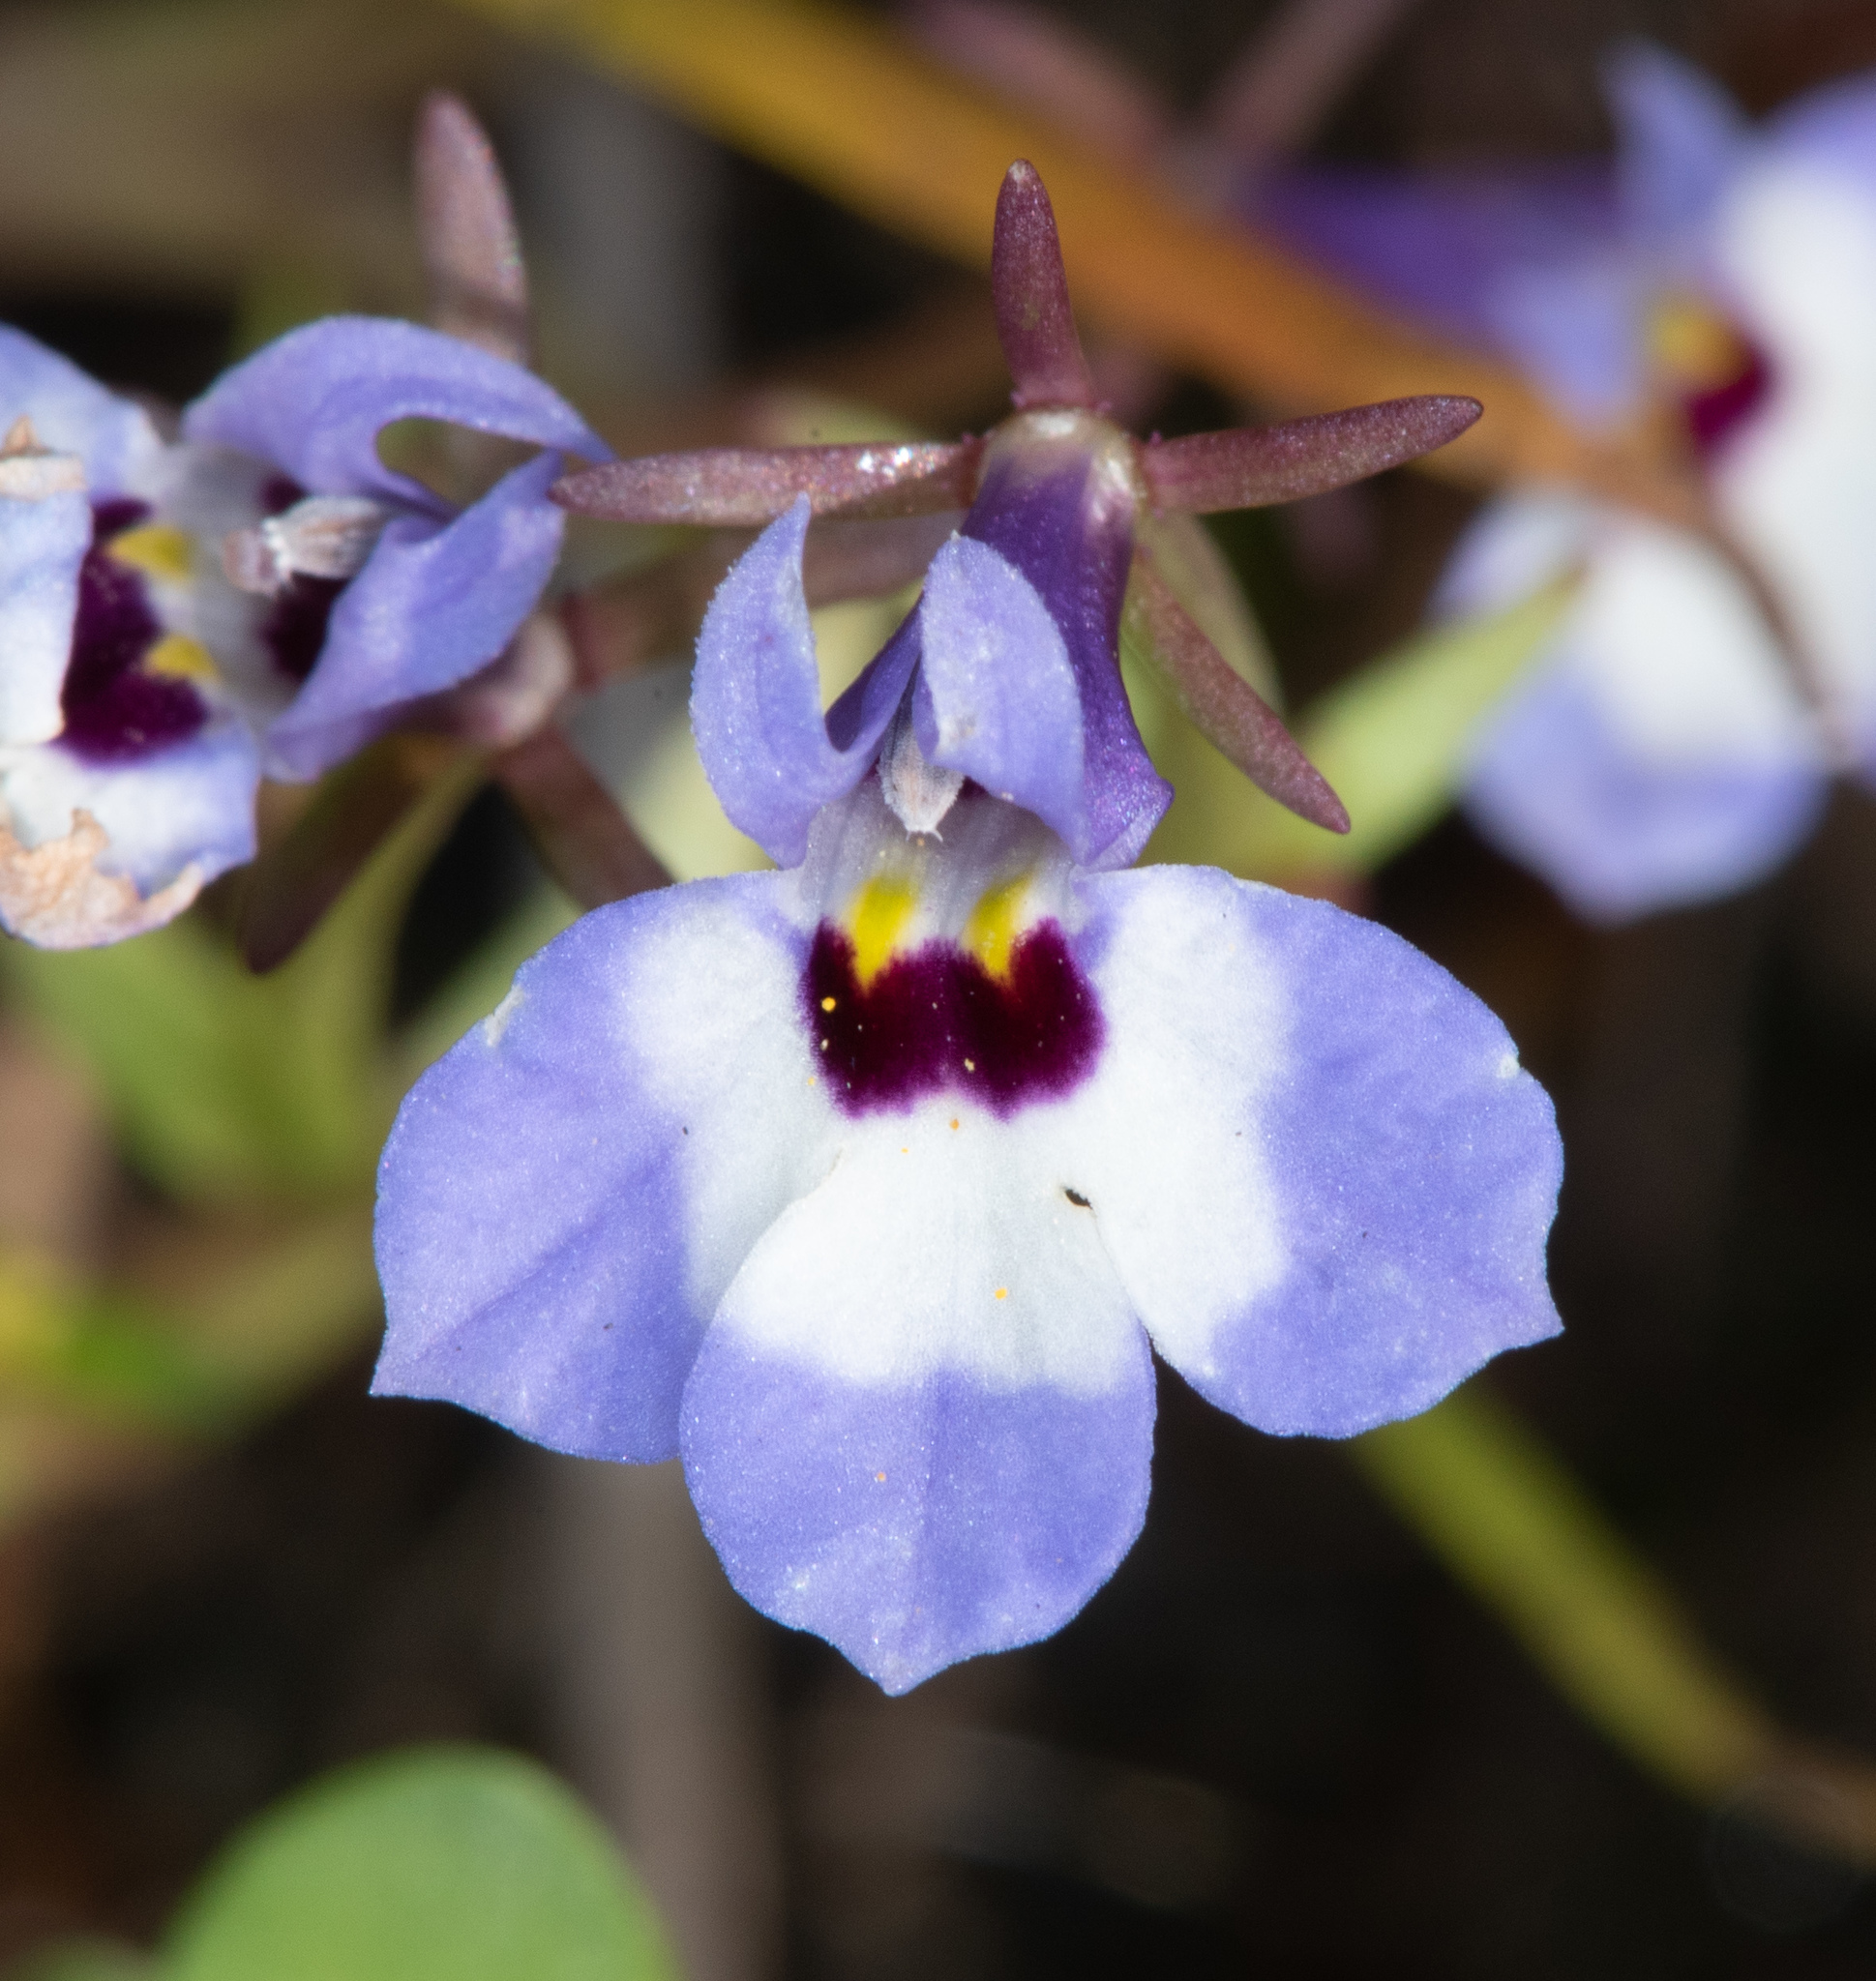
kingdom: Plantae
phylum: Tracheophyta
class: Magnoliopsida
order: Asterales
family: Campanulaceae
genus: Downingia
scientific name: Downingia concolor
